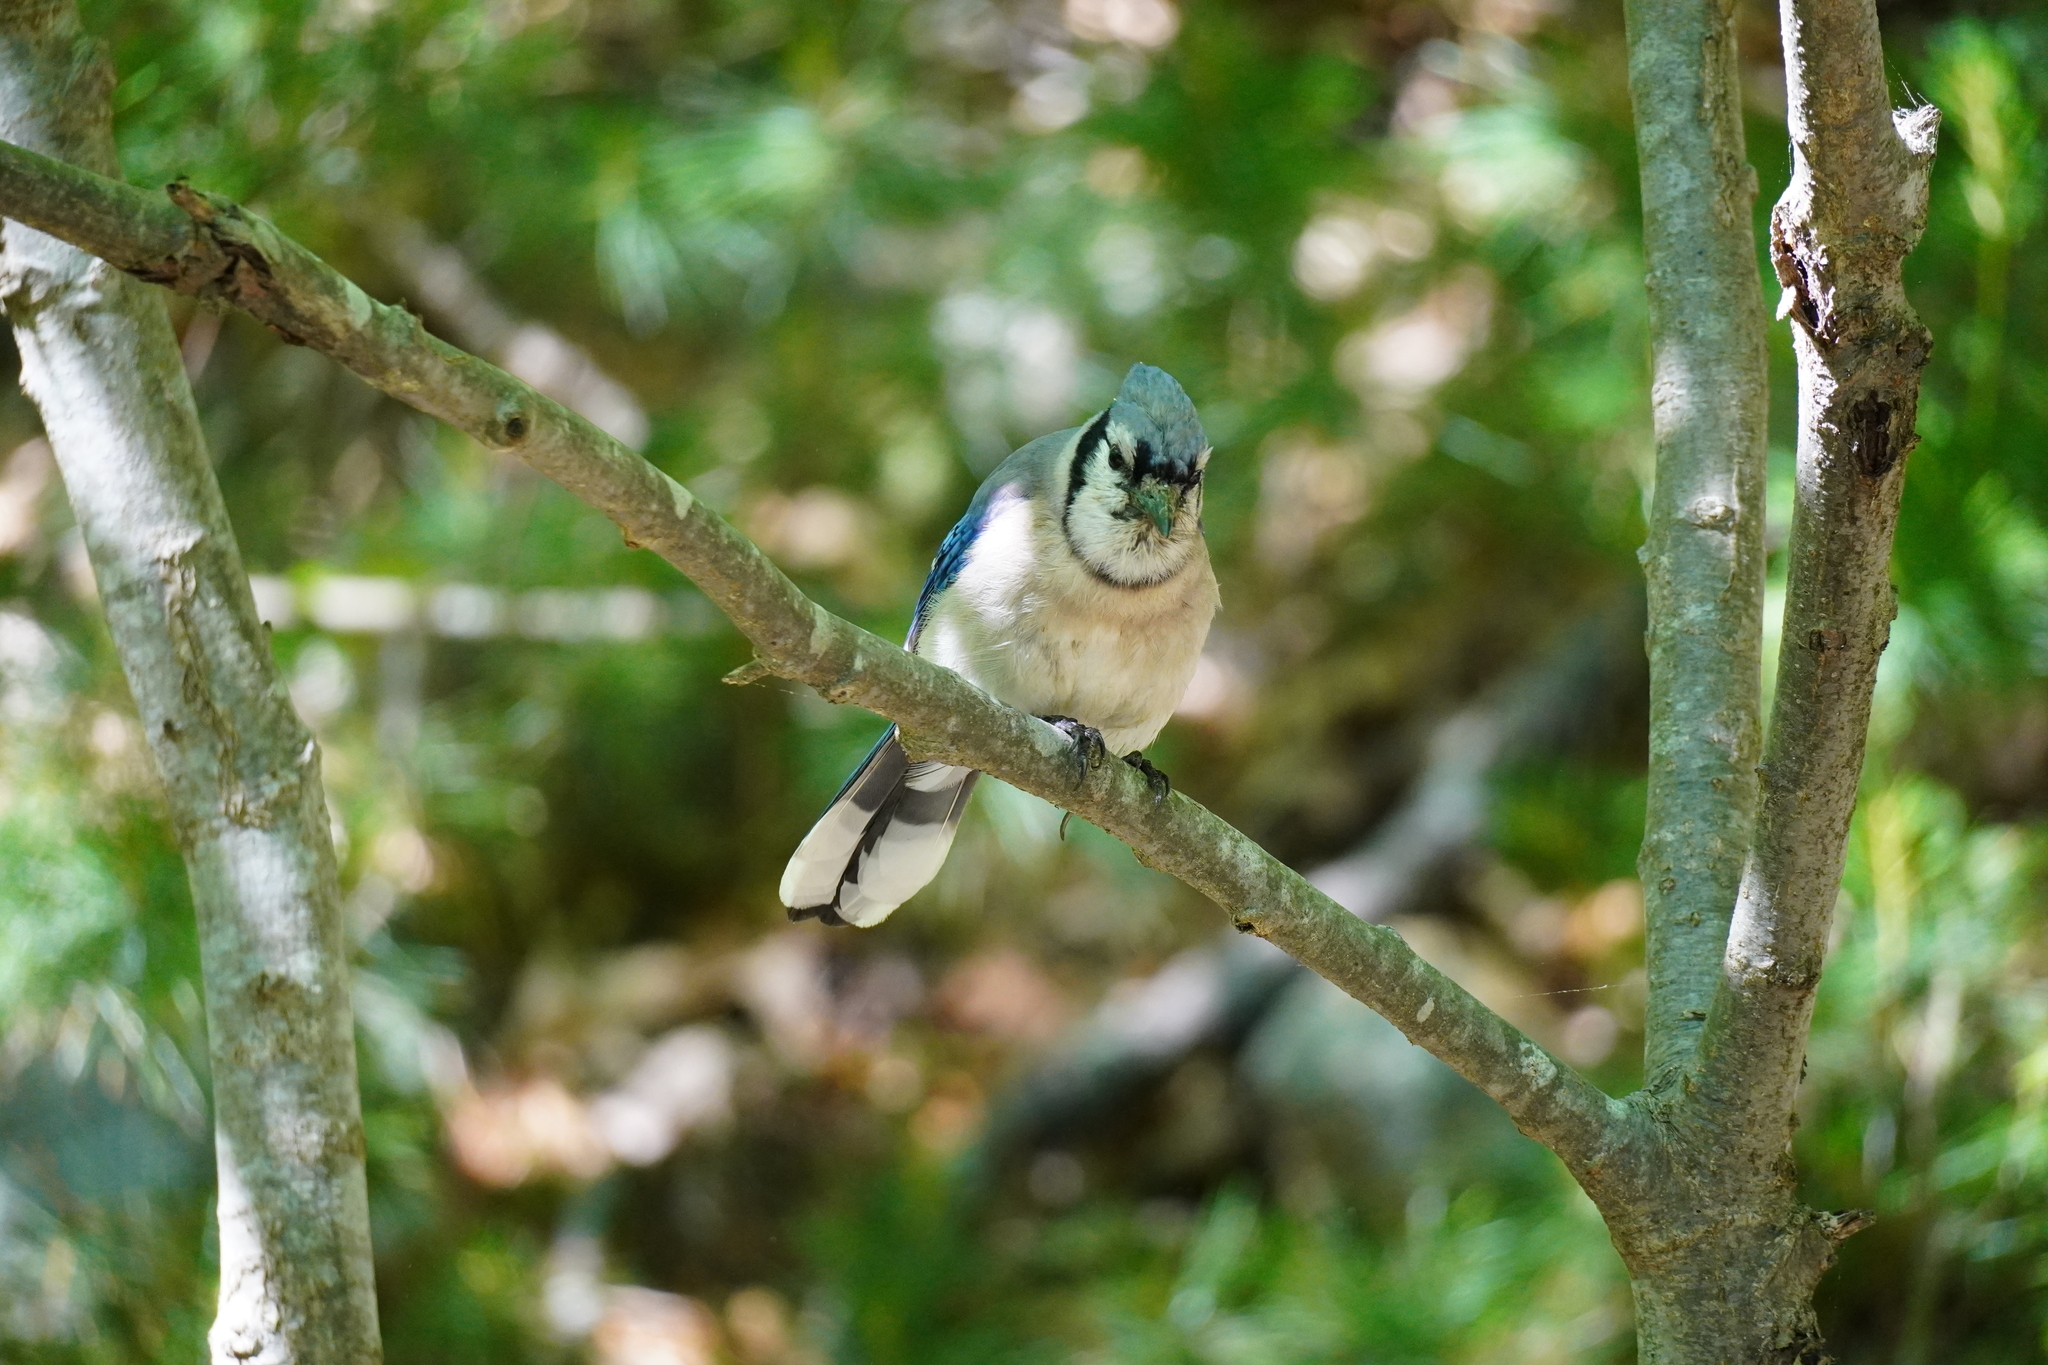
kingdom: Animalia
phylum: Chordata
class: Aves
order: Passeriformes
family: Corvidae
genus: Cyanocitta
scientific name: Cyanocitta cristata
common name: Blue jay
